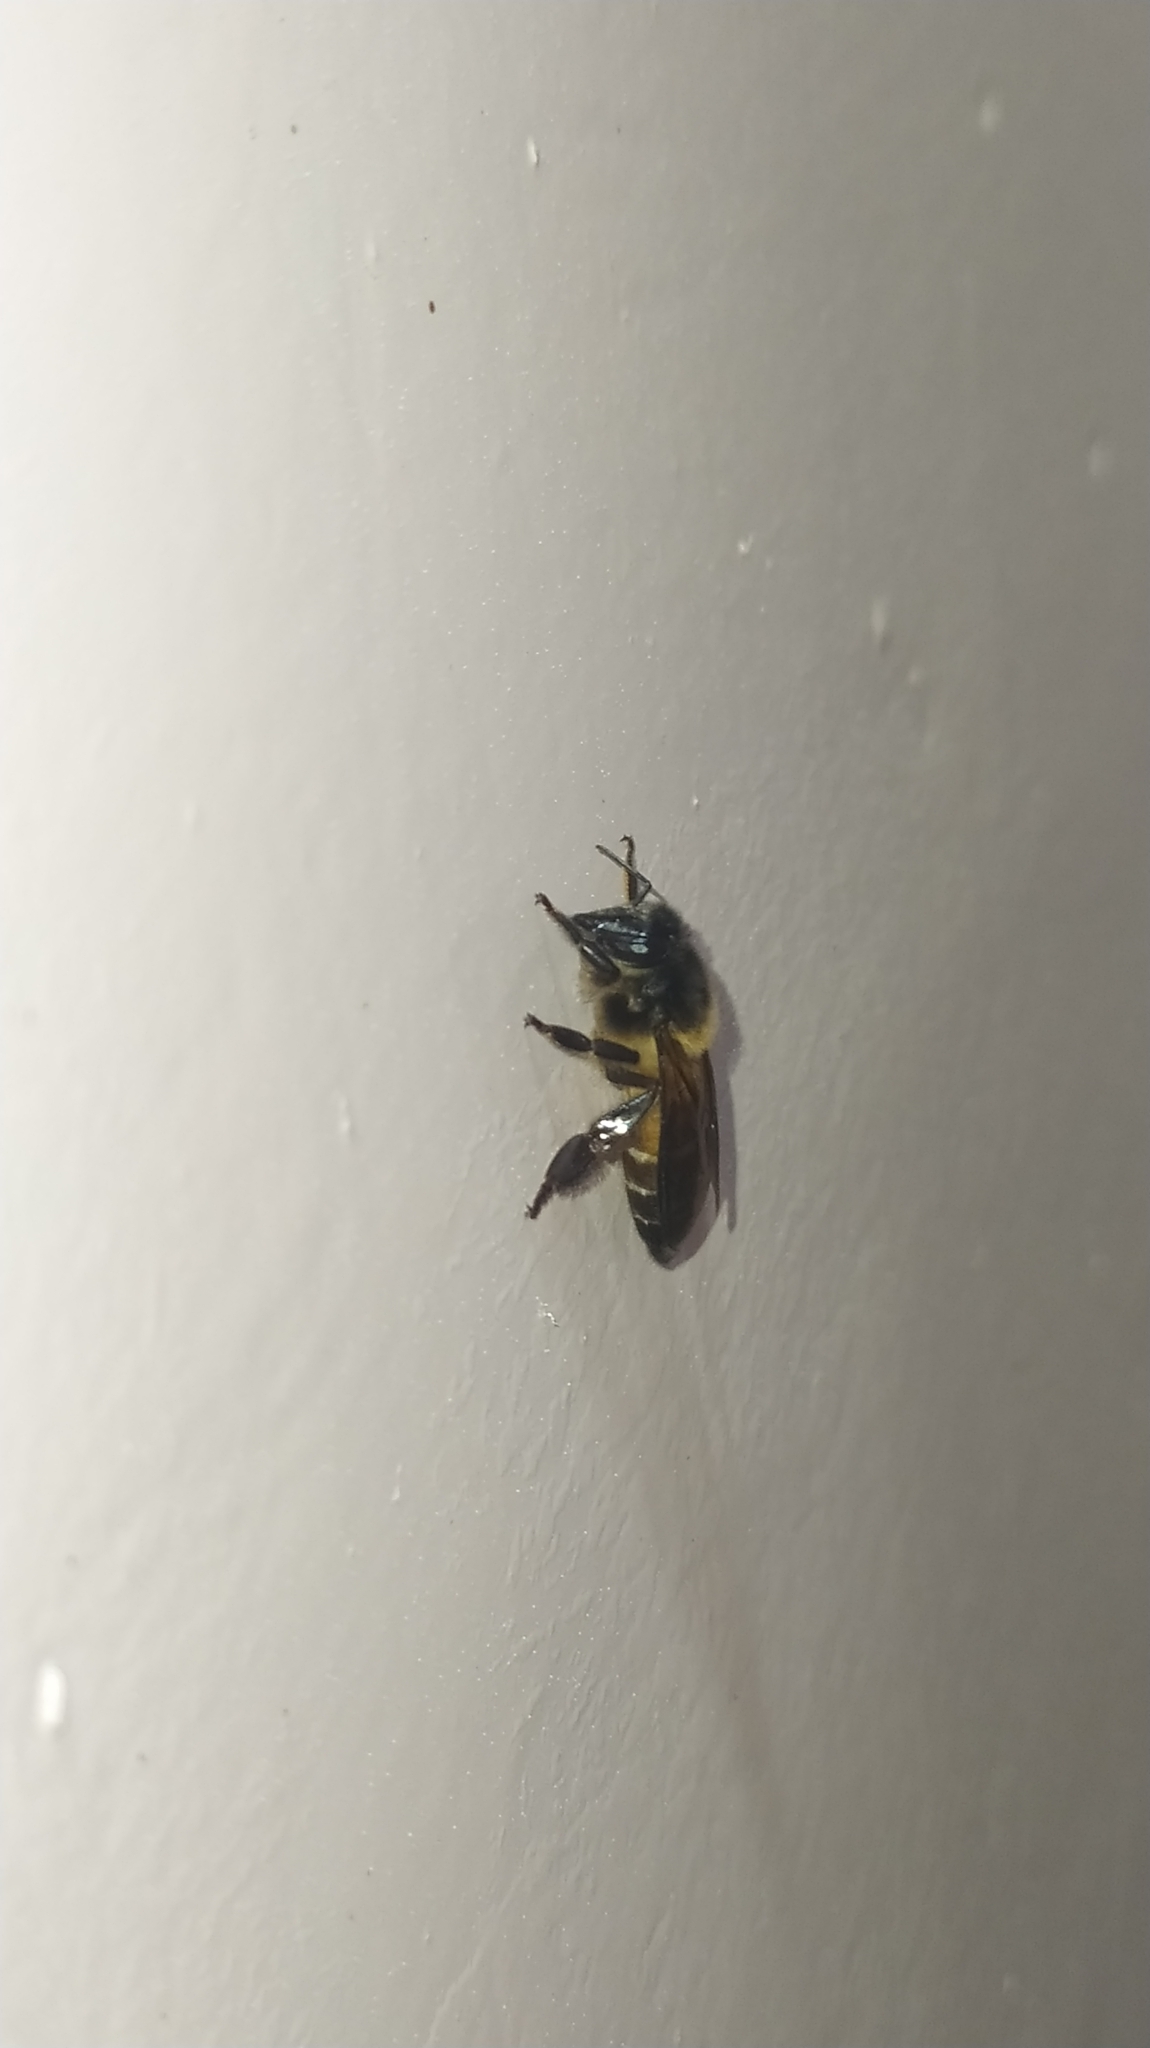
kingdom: Animalia
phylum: Arthropoda
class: Insecta
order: Hymenoptera
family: Apidae
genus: Apis
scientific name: Apis dorsata
